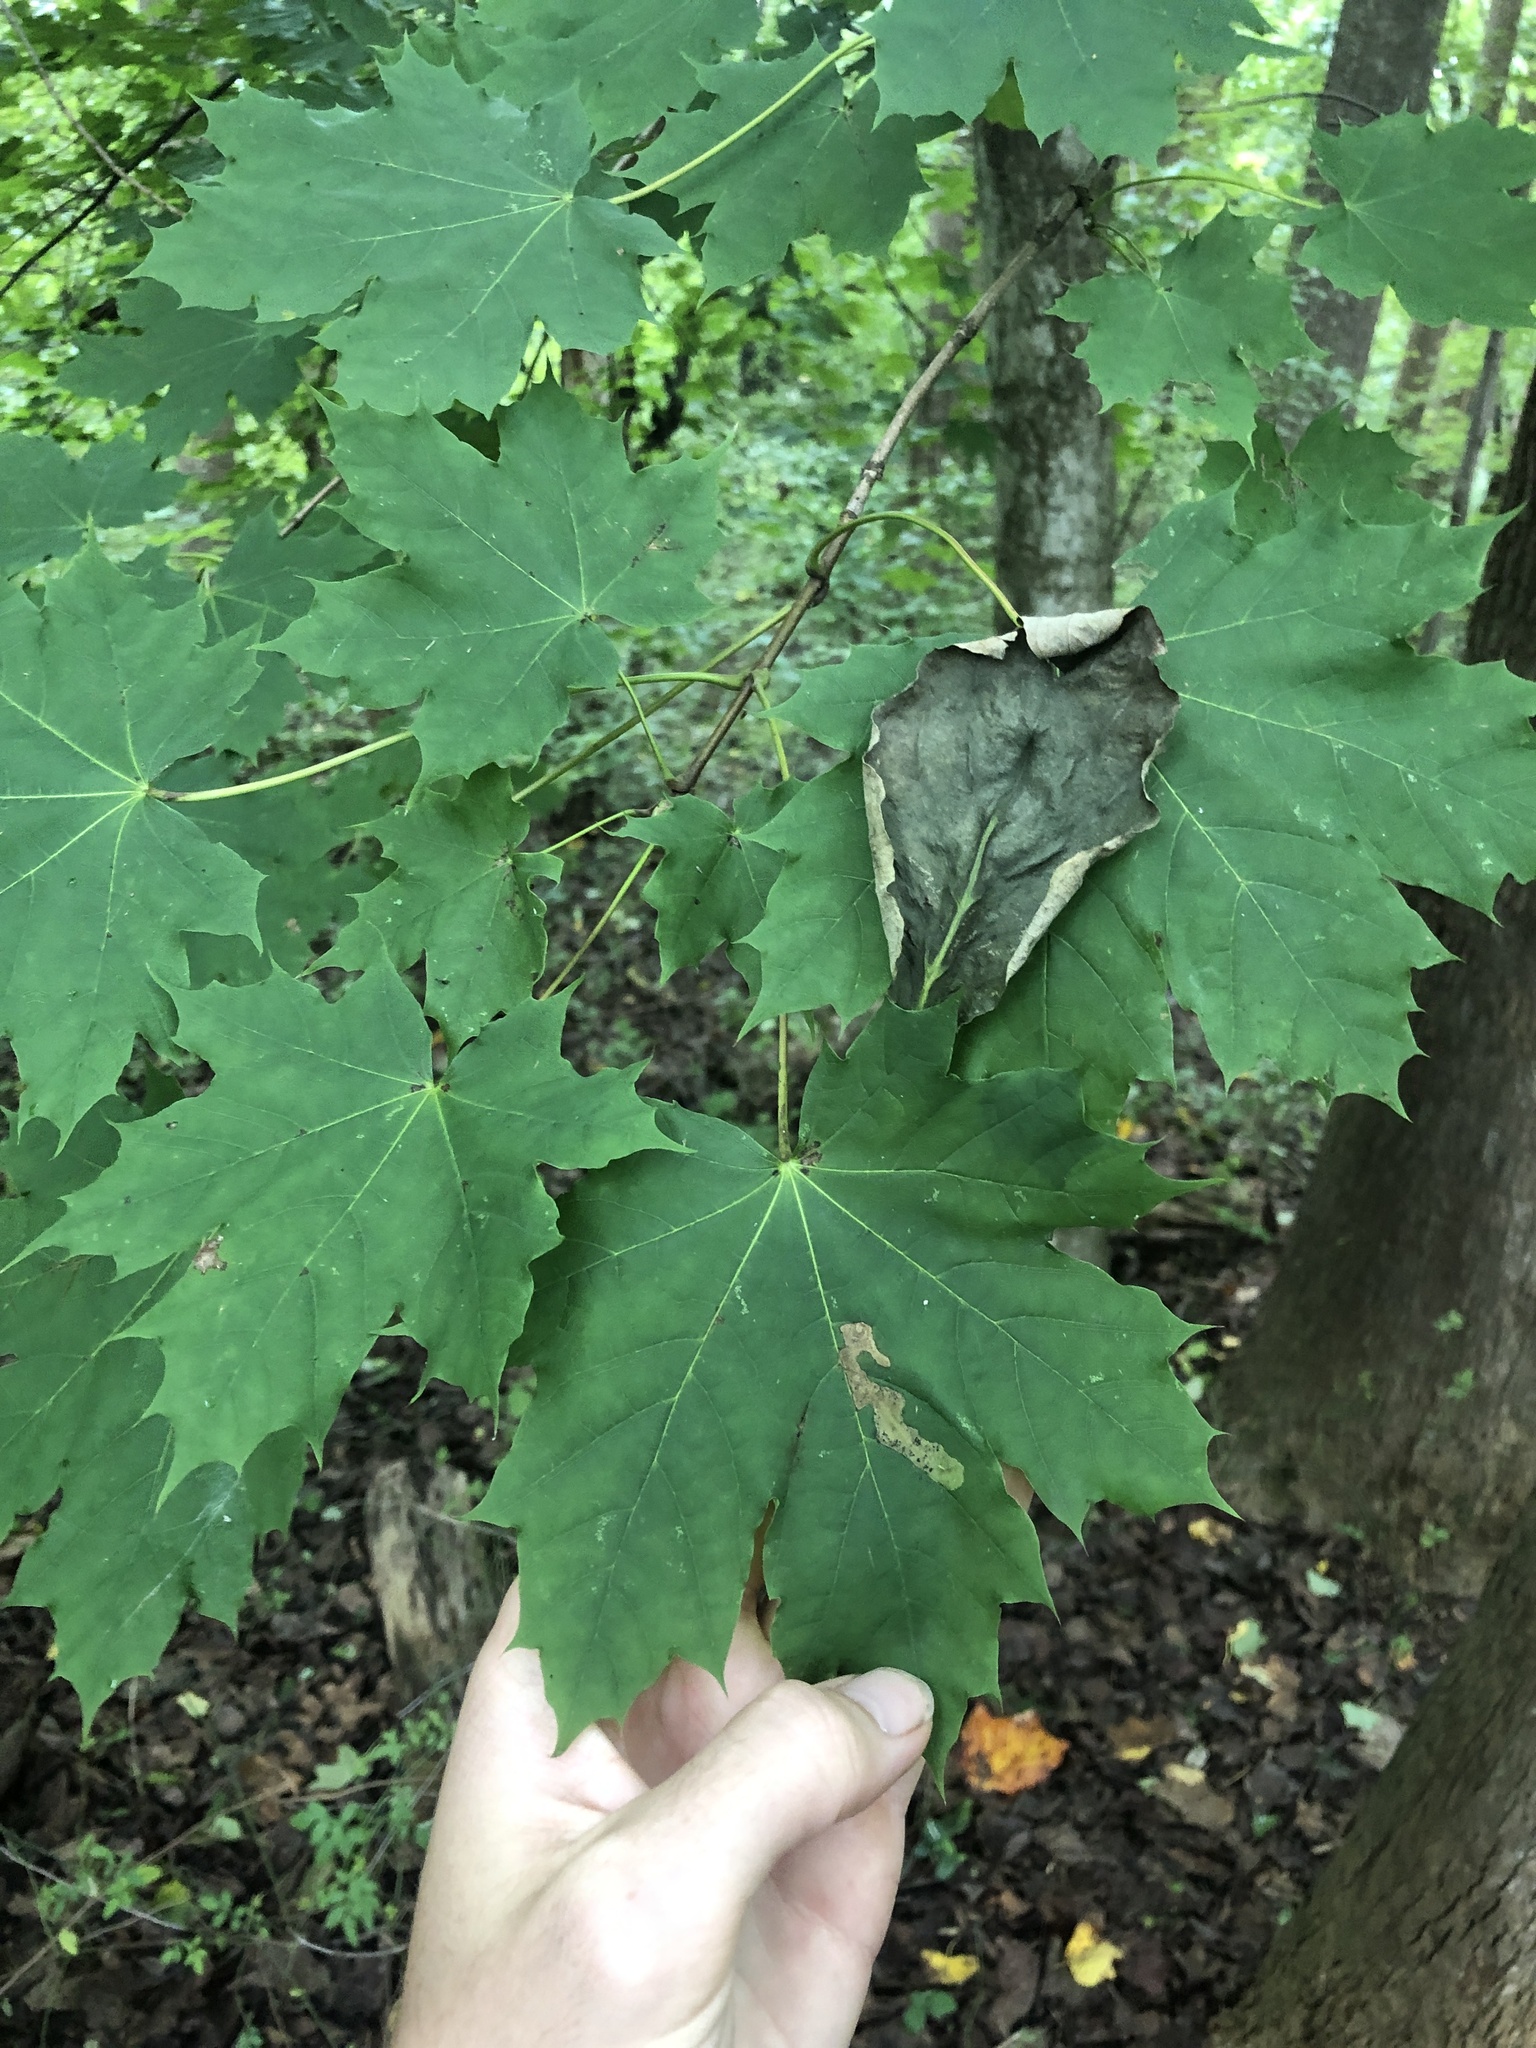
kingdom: Plantae
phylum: Tracheophyta
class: Magnoliopsida
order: Sapindales
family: Sapindaceae
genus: Acer
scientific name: Acer platanoides
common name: Norway maple
